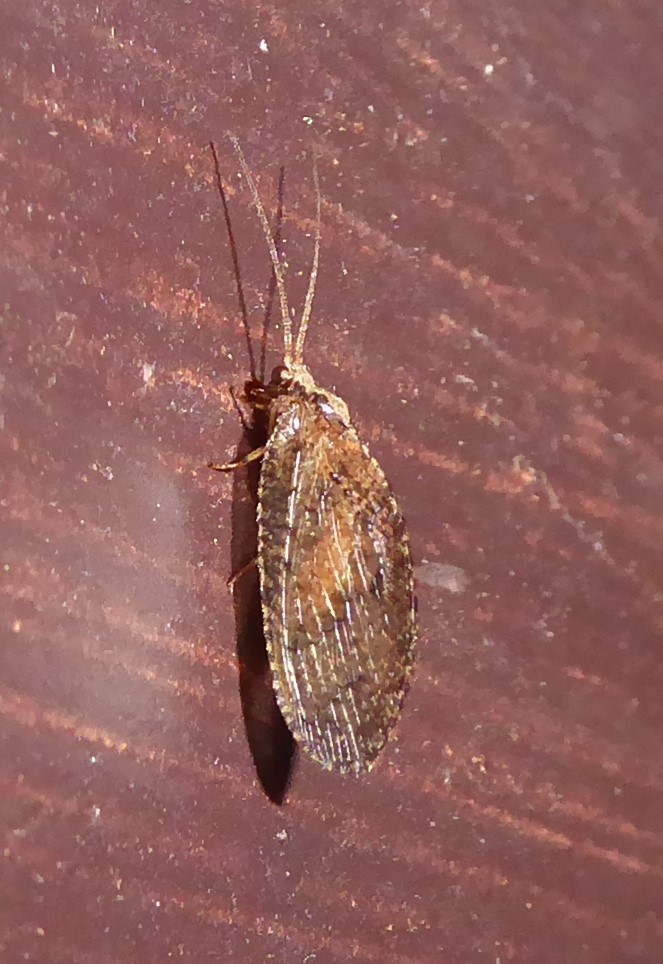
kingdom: Animalia
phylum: Arthropoda
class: Insecta
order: Neuroptera
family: Hemerobiidae
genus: Wesmaelius
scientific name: Wesmaelius subnebulosus
